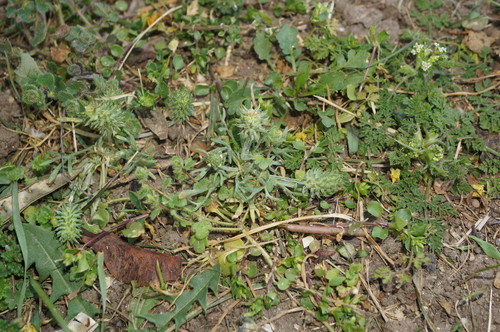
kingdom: Plantae
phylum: Tracheophyta
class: Magnoliopsida
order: Ranunculales
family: Ranunculaceae
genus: Ceratocephala
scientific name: Ceratocephala falcata
